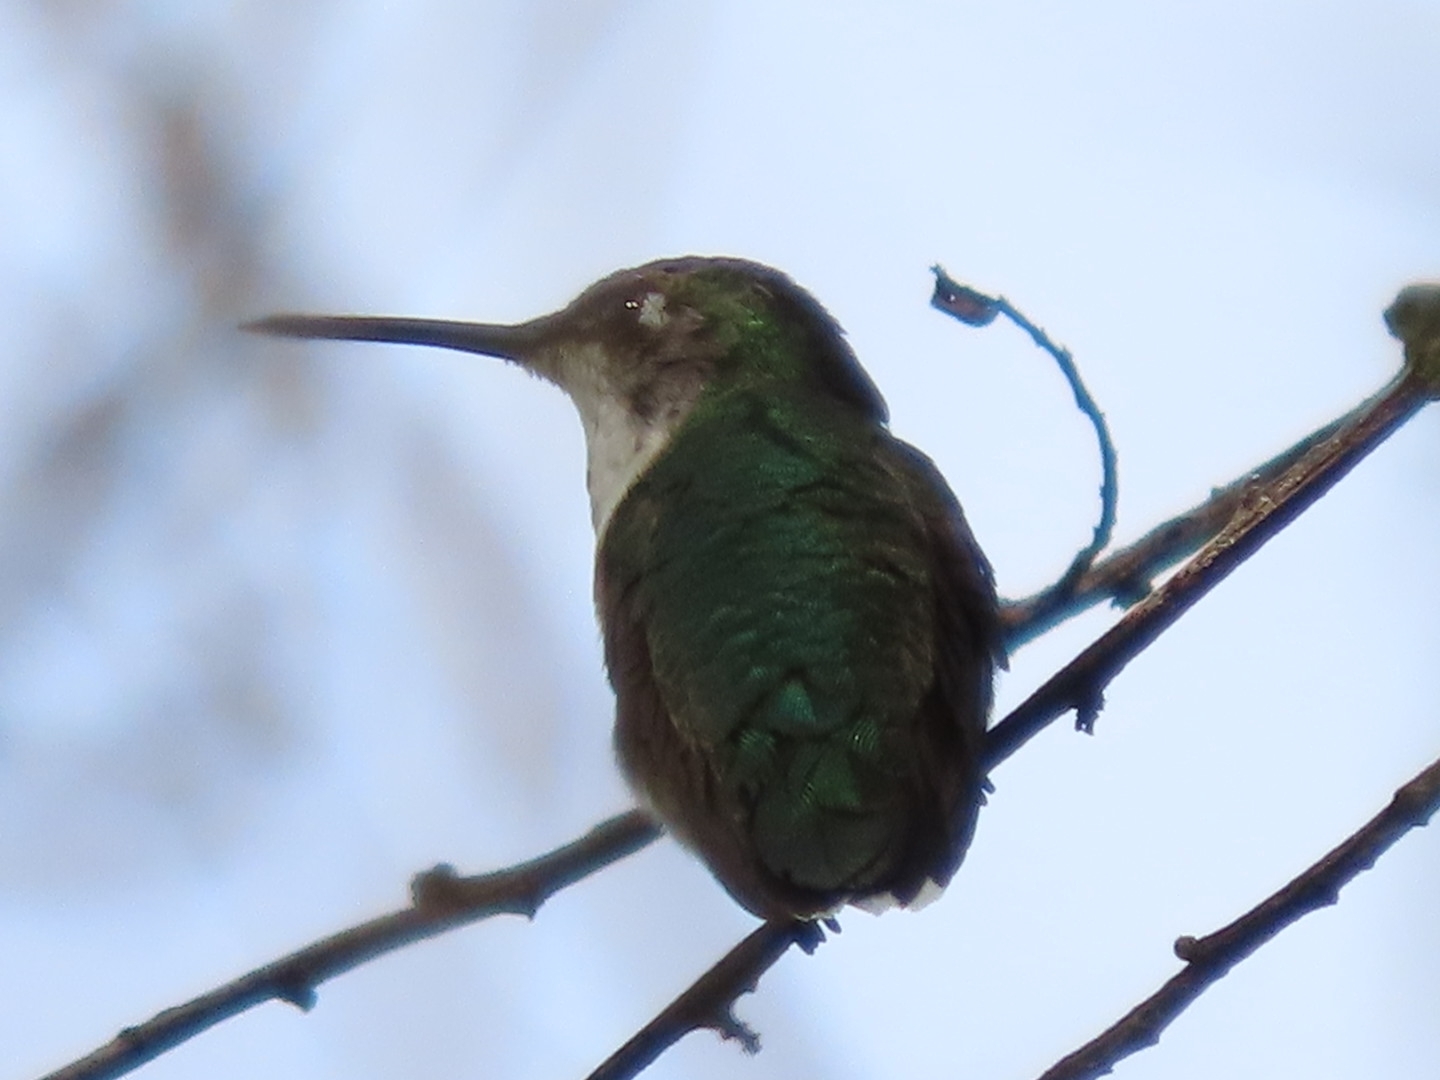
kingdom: Animalia
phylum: Chordata
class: Aves
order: Apodiformes
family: Trochilidae
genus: Archilochus
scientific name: Archilochus colubris
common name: Ruby-throated hummingbird
